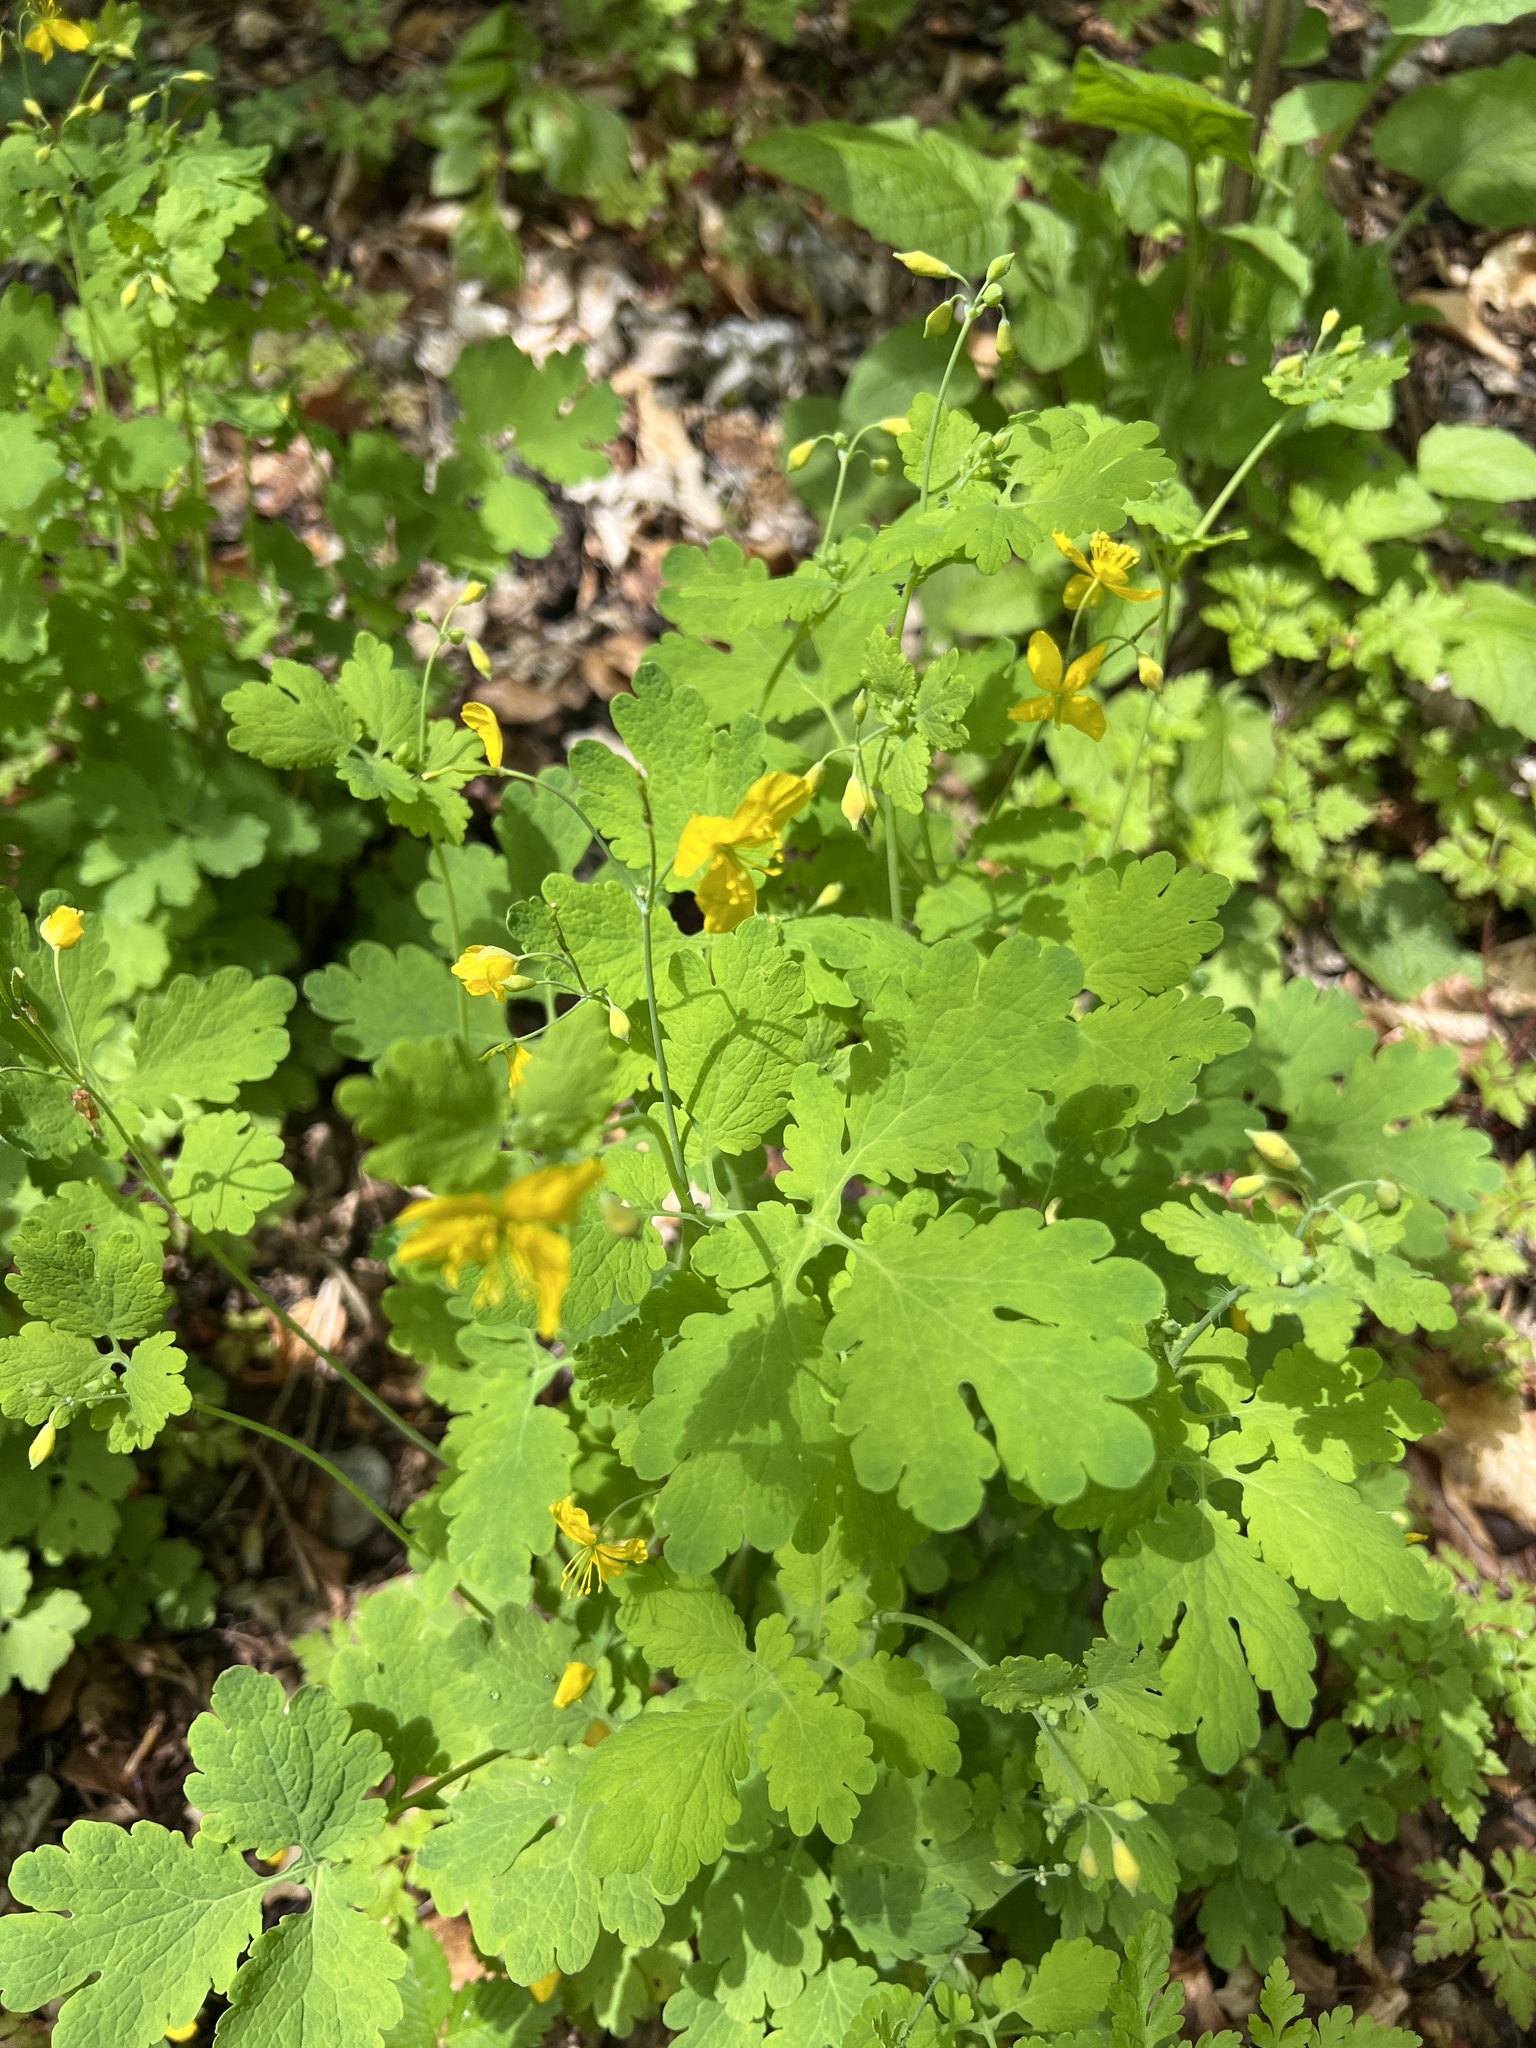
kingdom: Plantae
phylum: Tracheophyta
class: Magnoliopsida
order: Ranunculales
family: Papaveraceae
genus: Chelidonium
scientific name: Chelidonium majus
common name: Greater celandine
